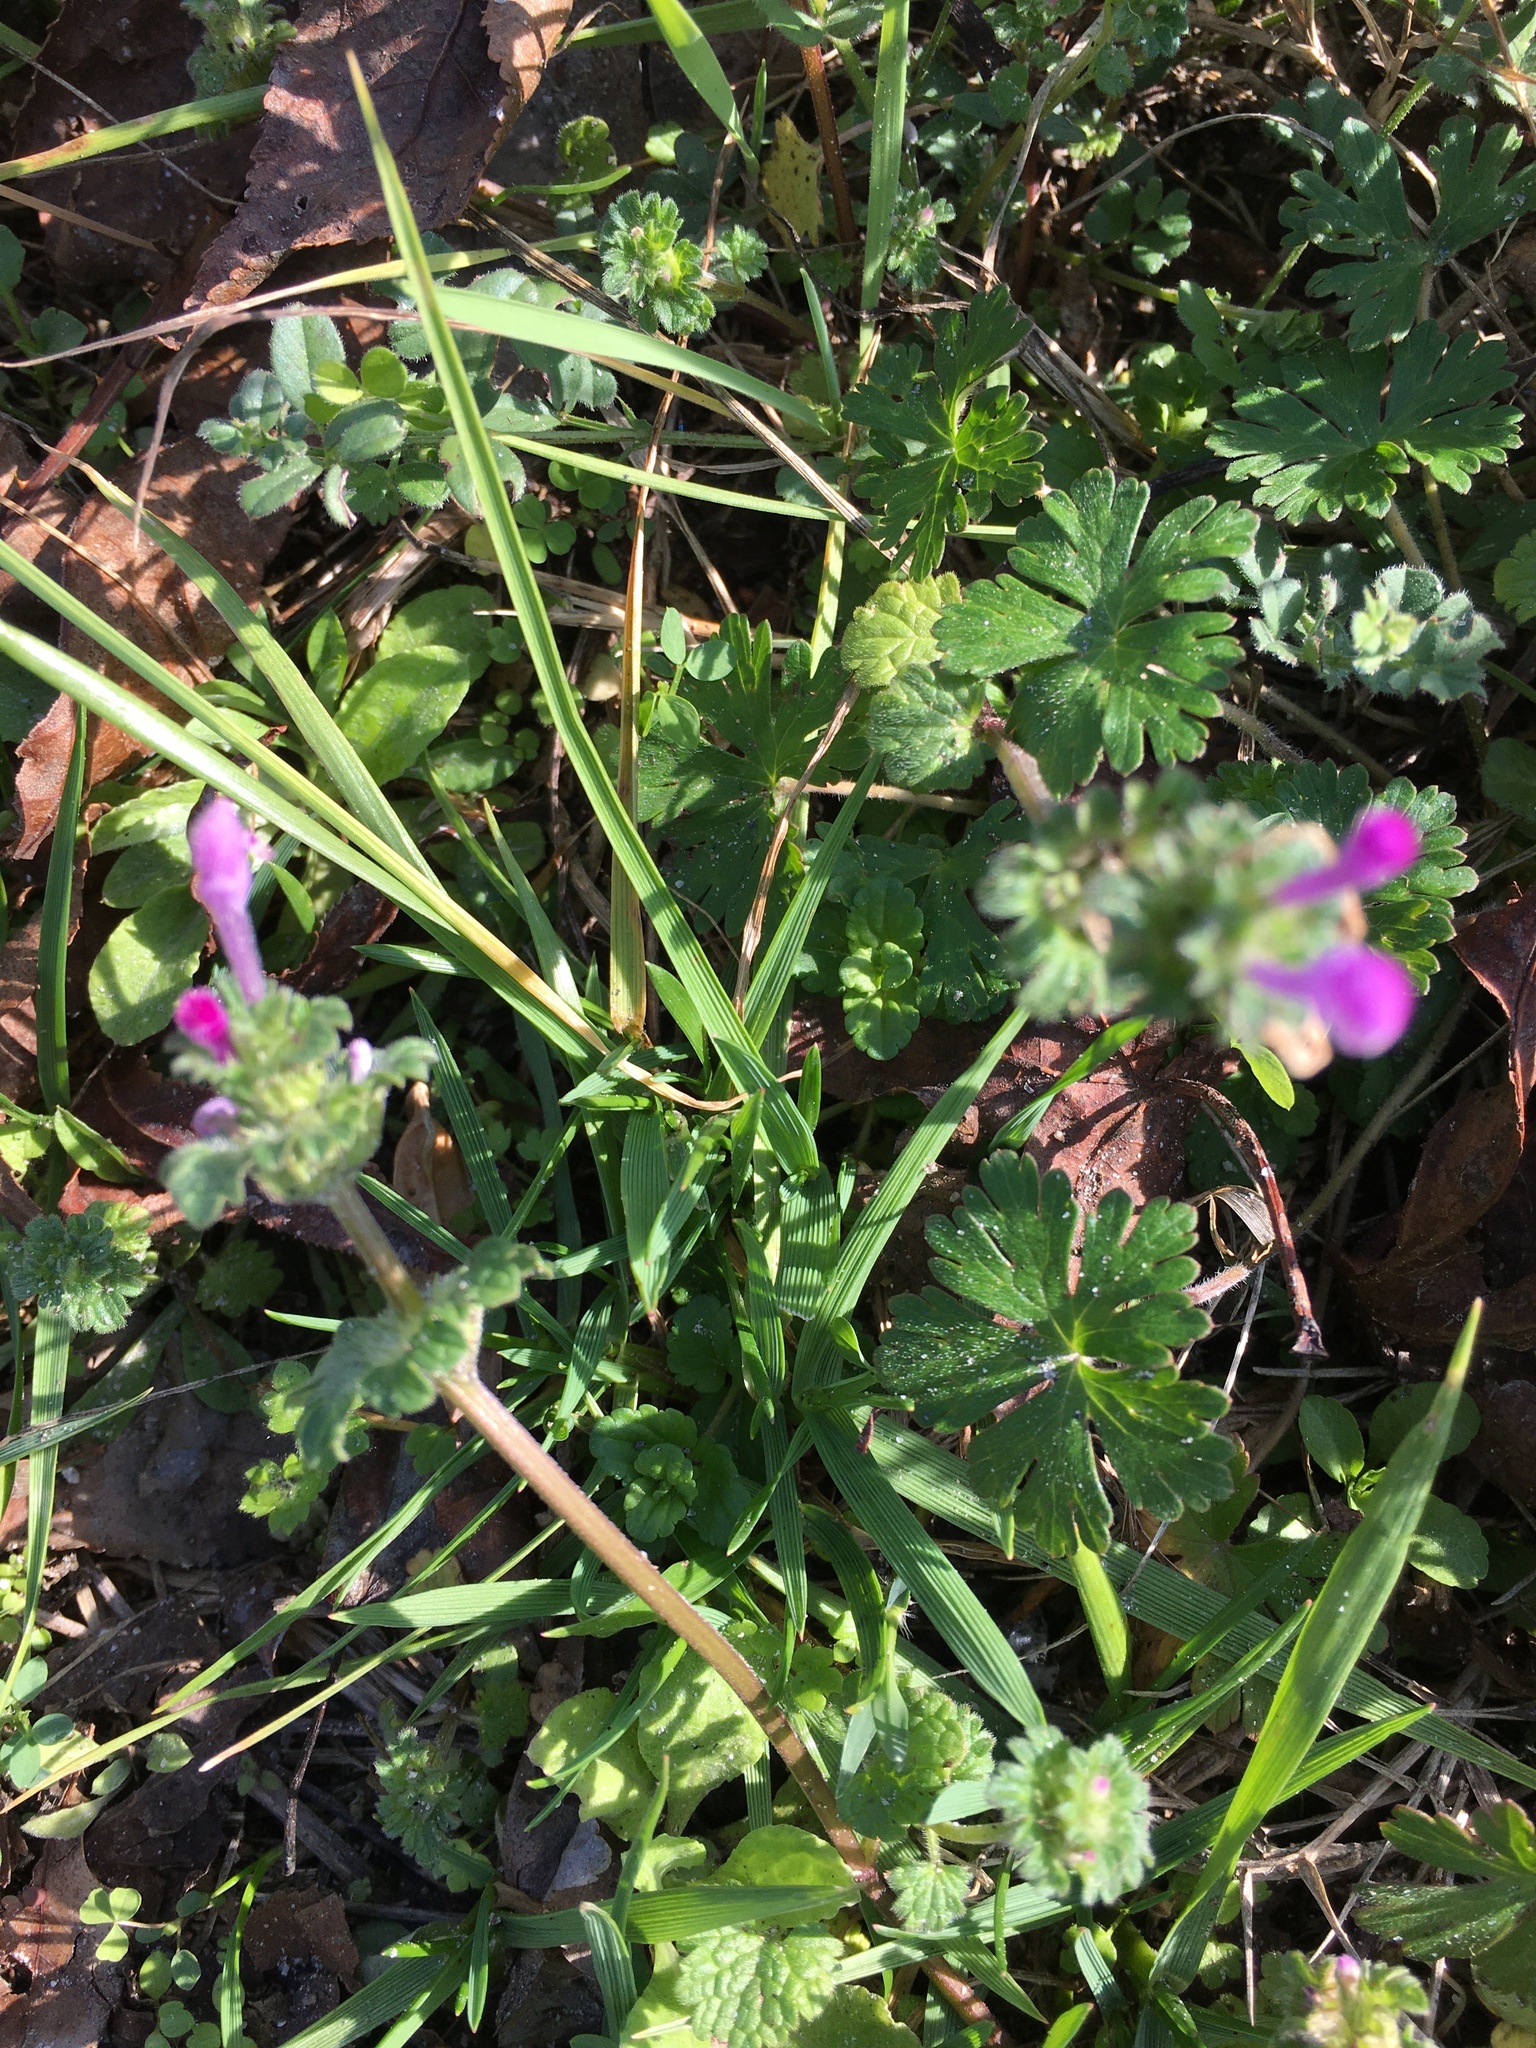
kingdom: Plantae
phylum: Tracheophyta
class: Magnoliopsida
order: Lamiales
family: Lamiaceae
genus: Lamium
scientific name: Lamium amplexicaule
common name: Henbit dead-nettle
